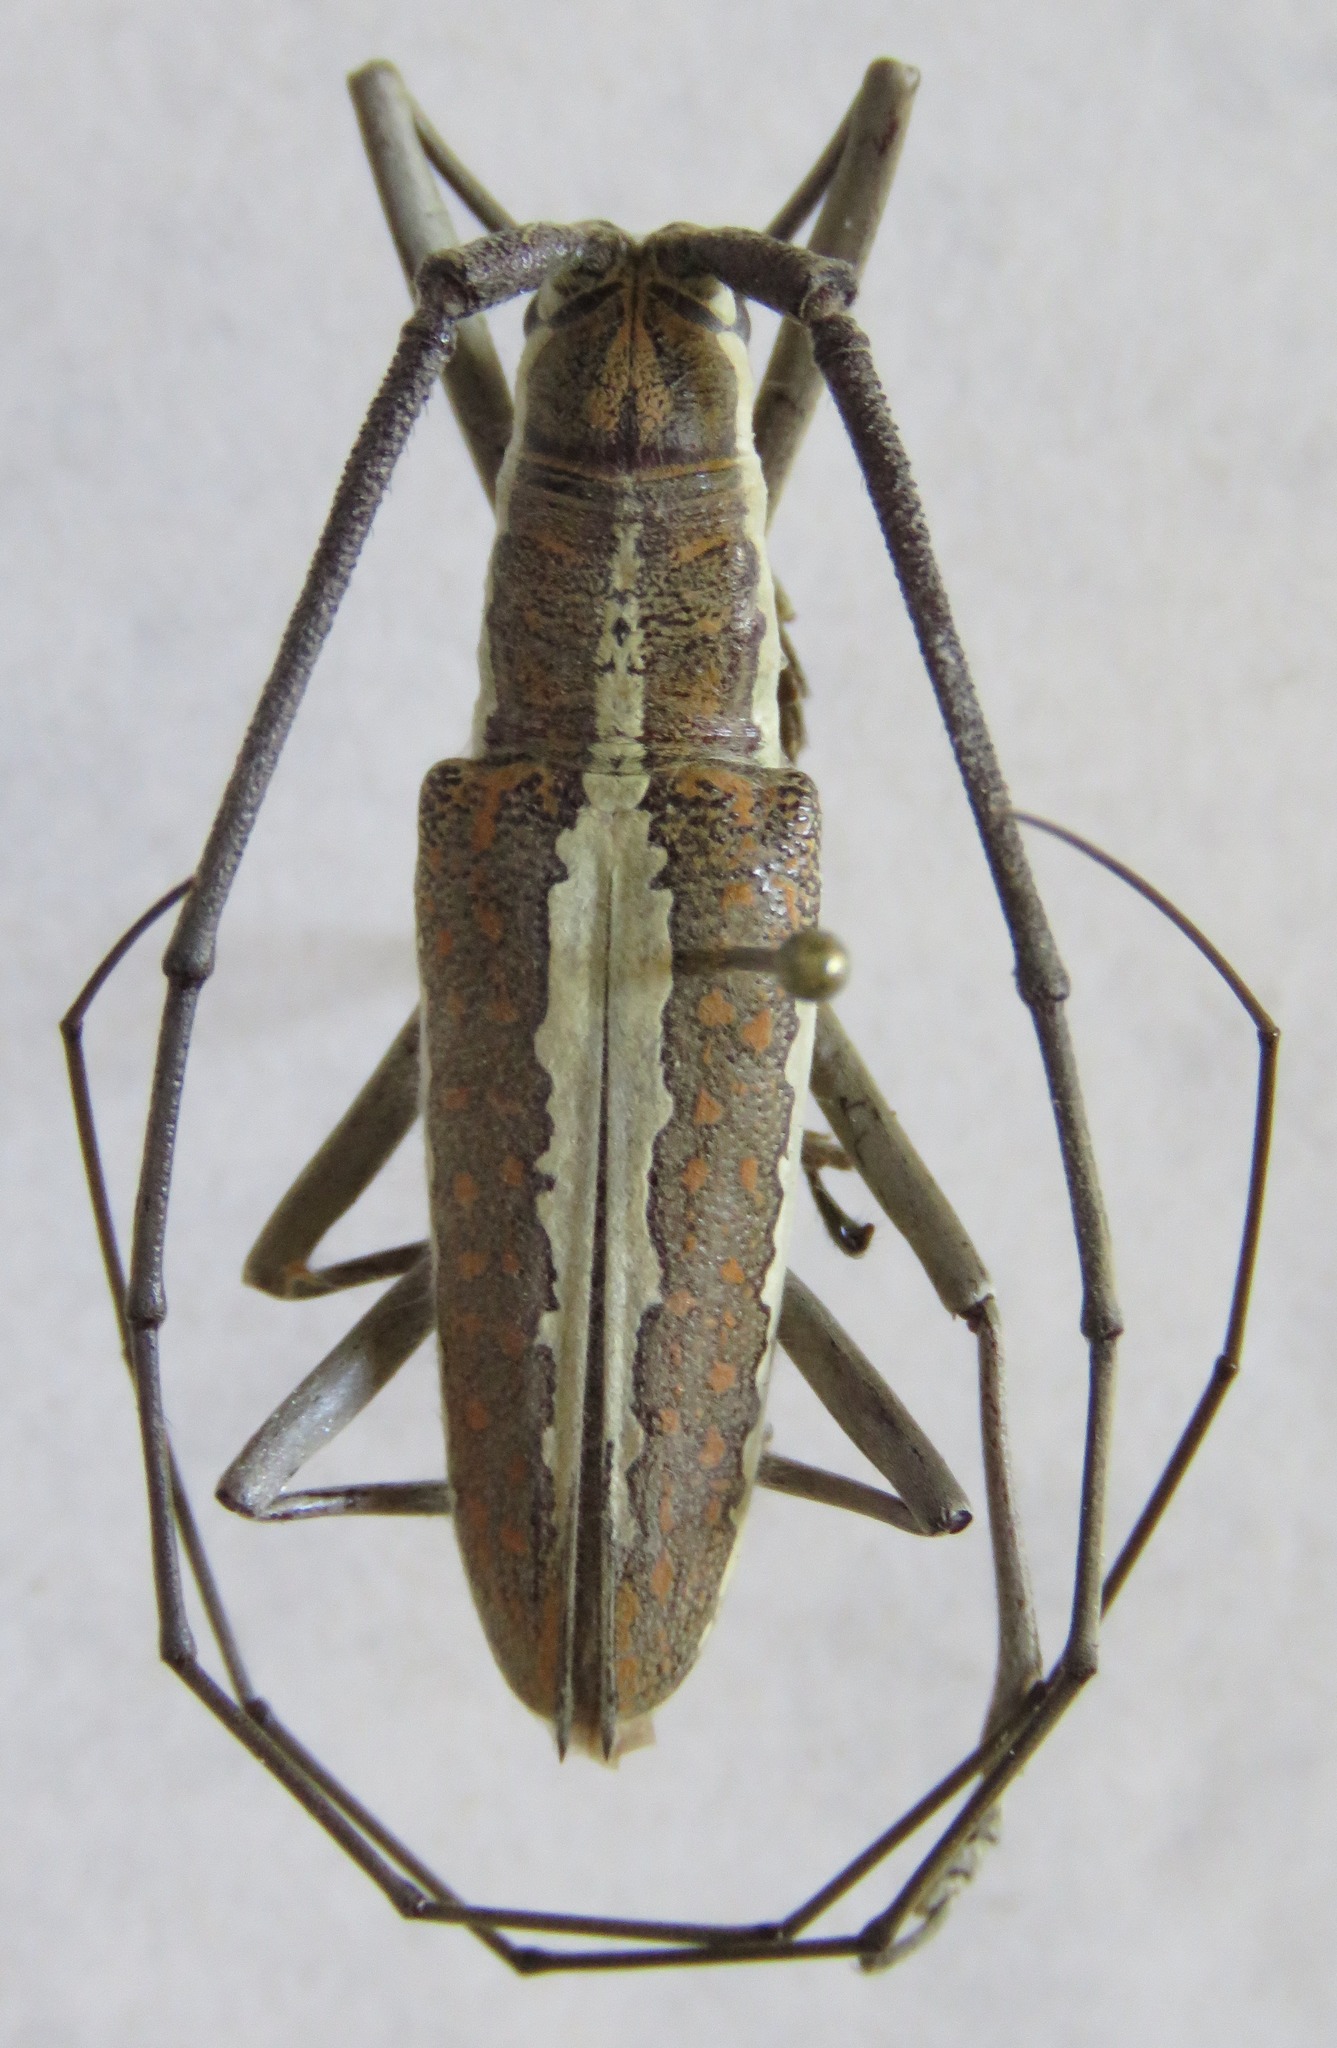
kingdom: Animalia
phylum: Arthropoda
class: Insecta
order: Coleoptera
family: Cerambycidae
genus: Neoptychodes
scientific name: Neoptychodes trilineatus
